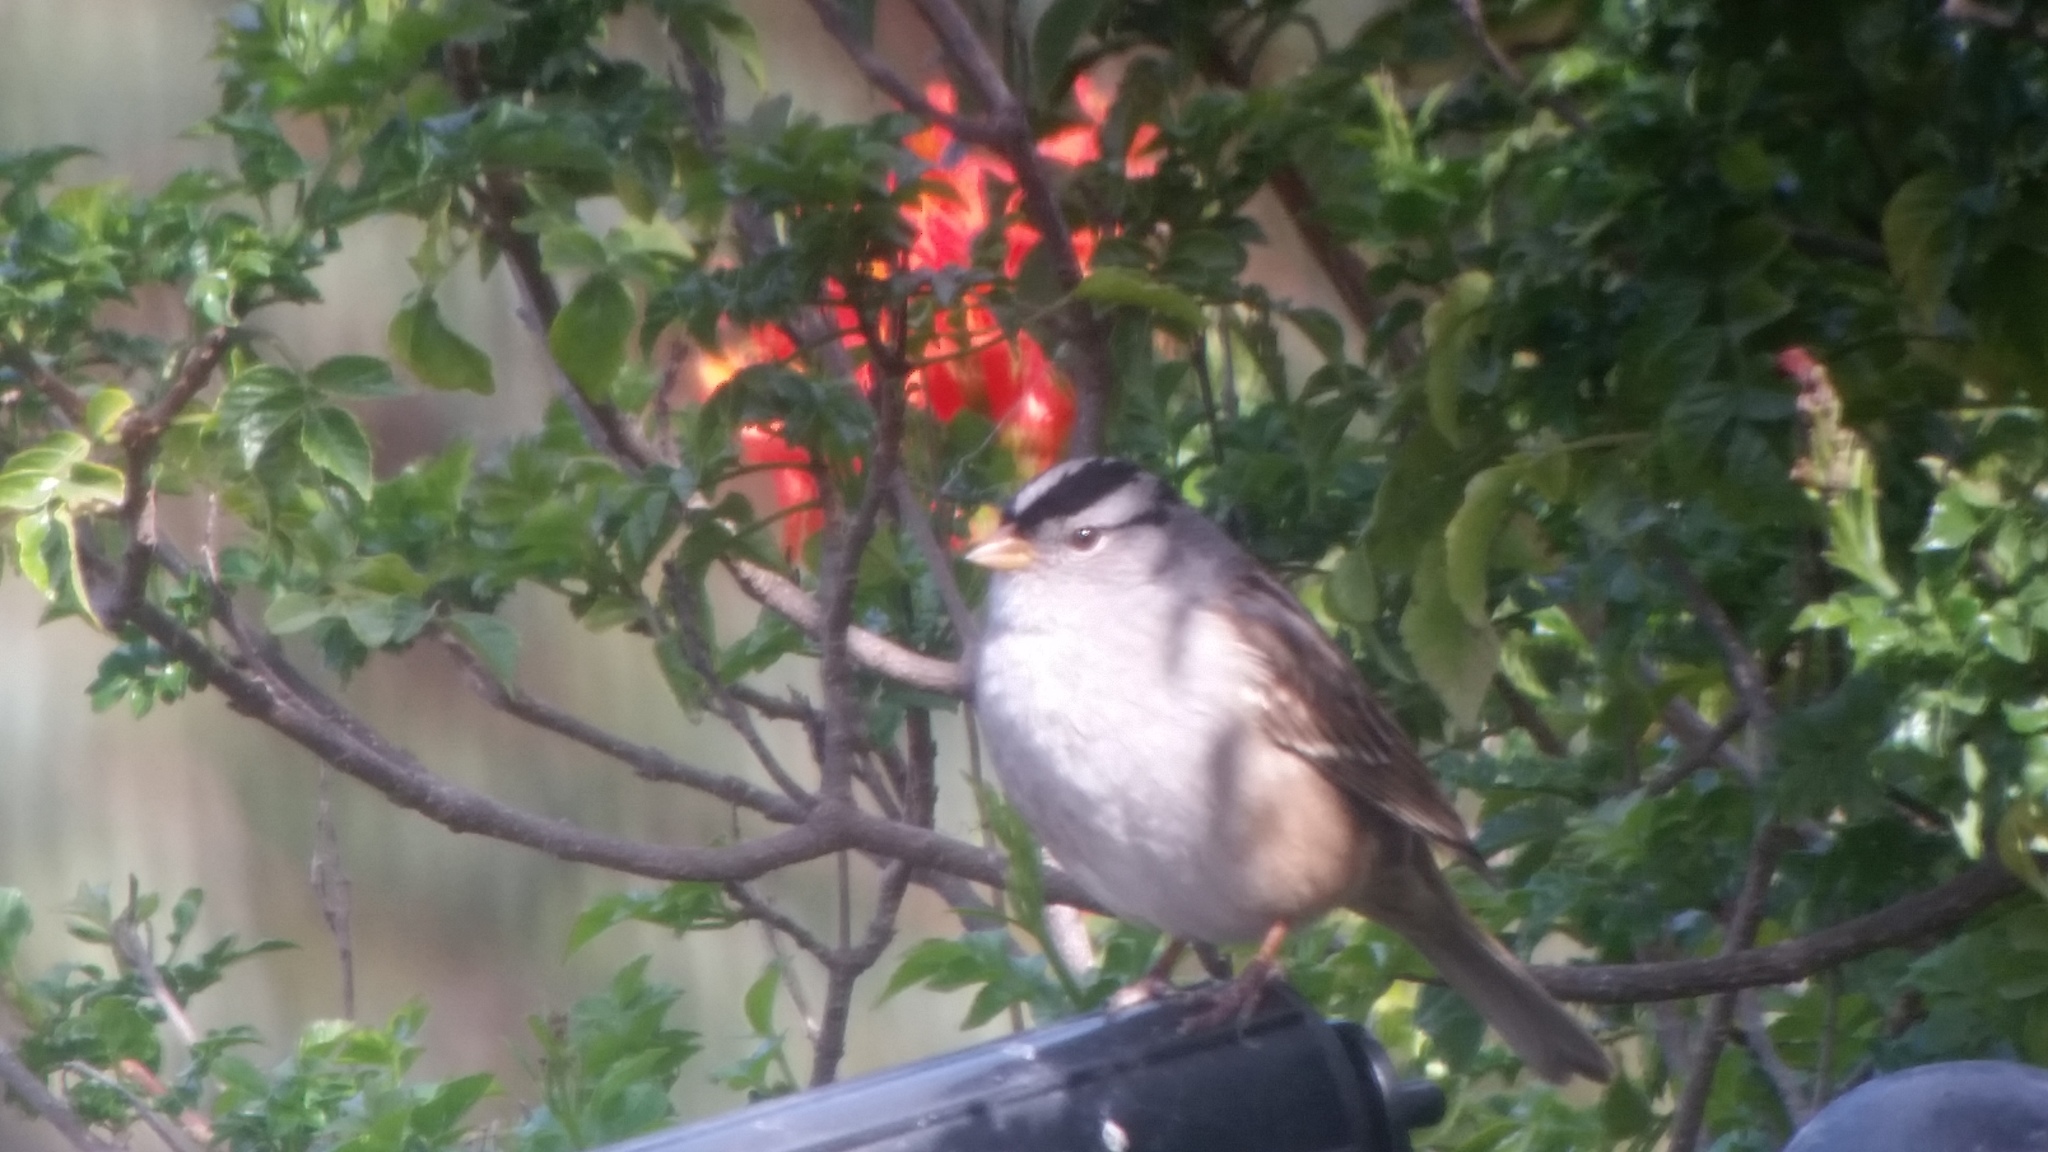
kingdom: Animalia
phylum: Chordata
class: Aves
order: Passeriformes
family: Passerellidae
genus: Zonotrichia
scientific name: Zonotrichia leucophrys
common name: White-crowned sparrow
